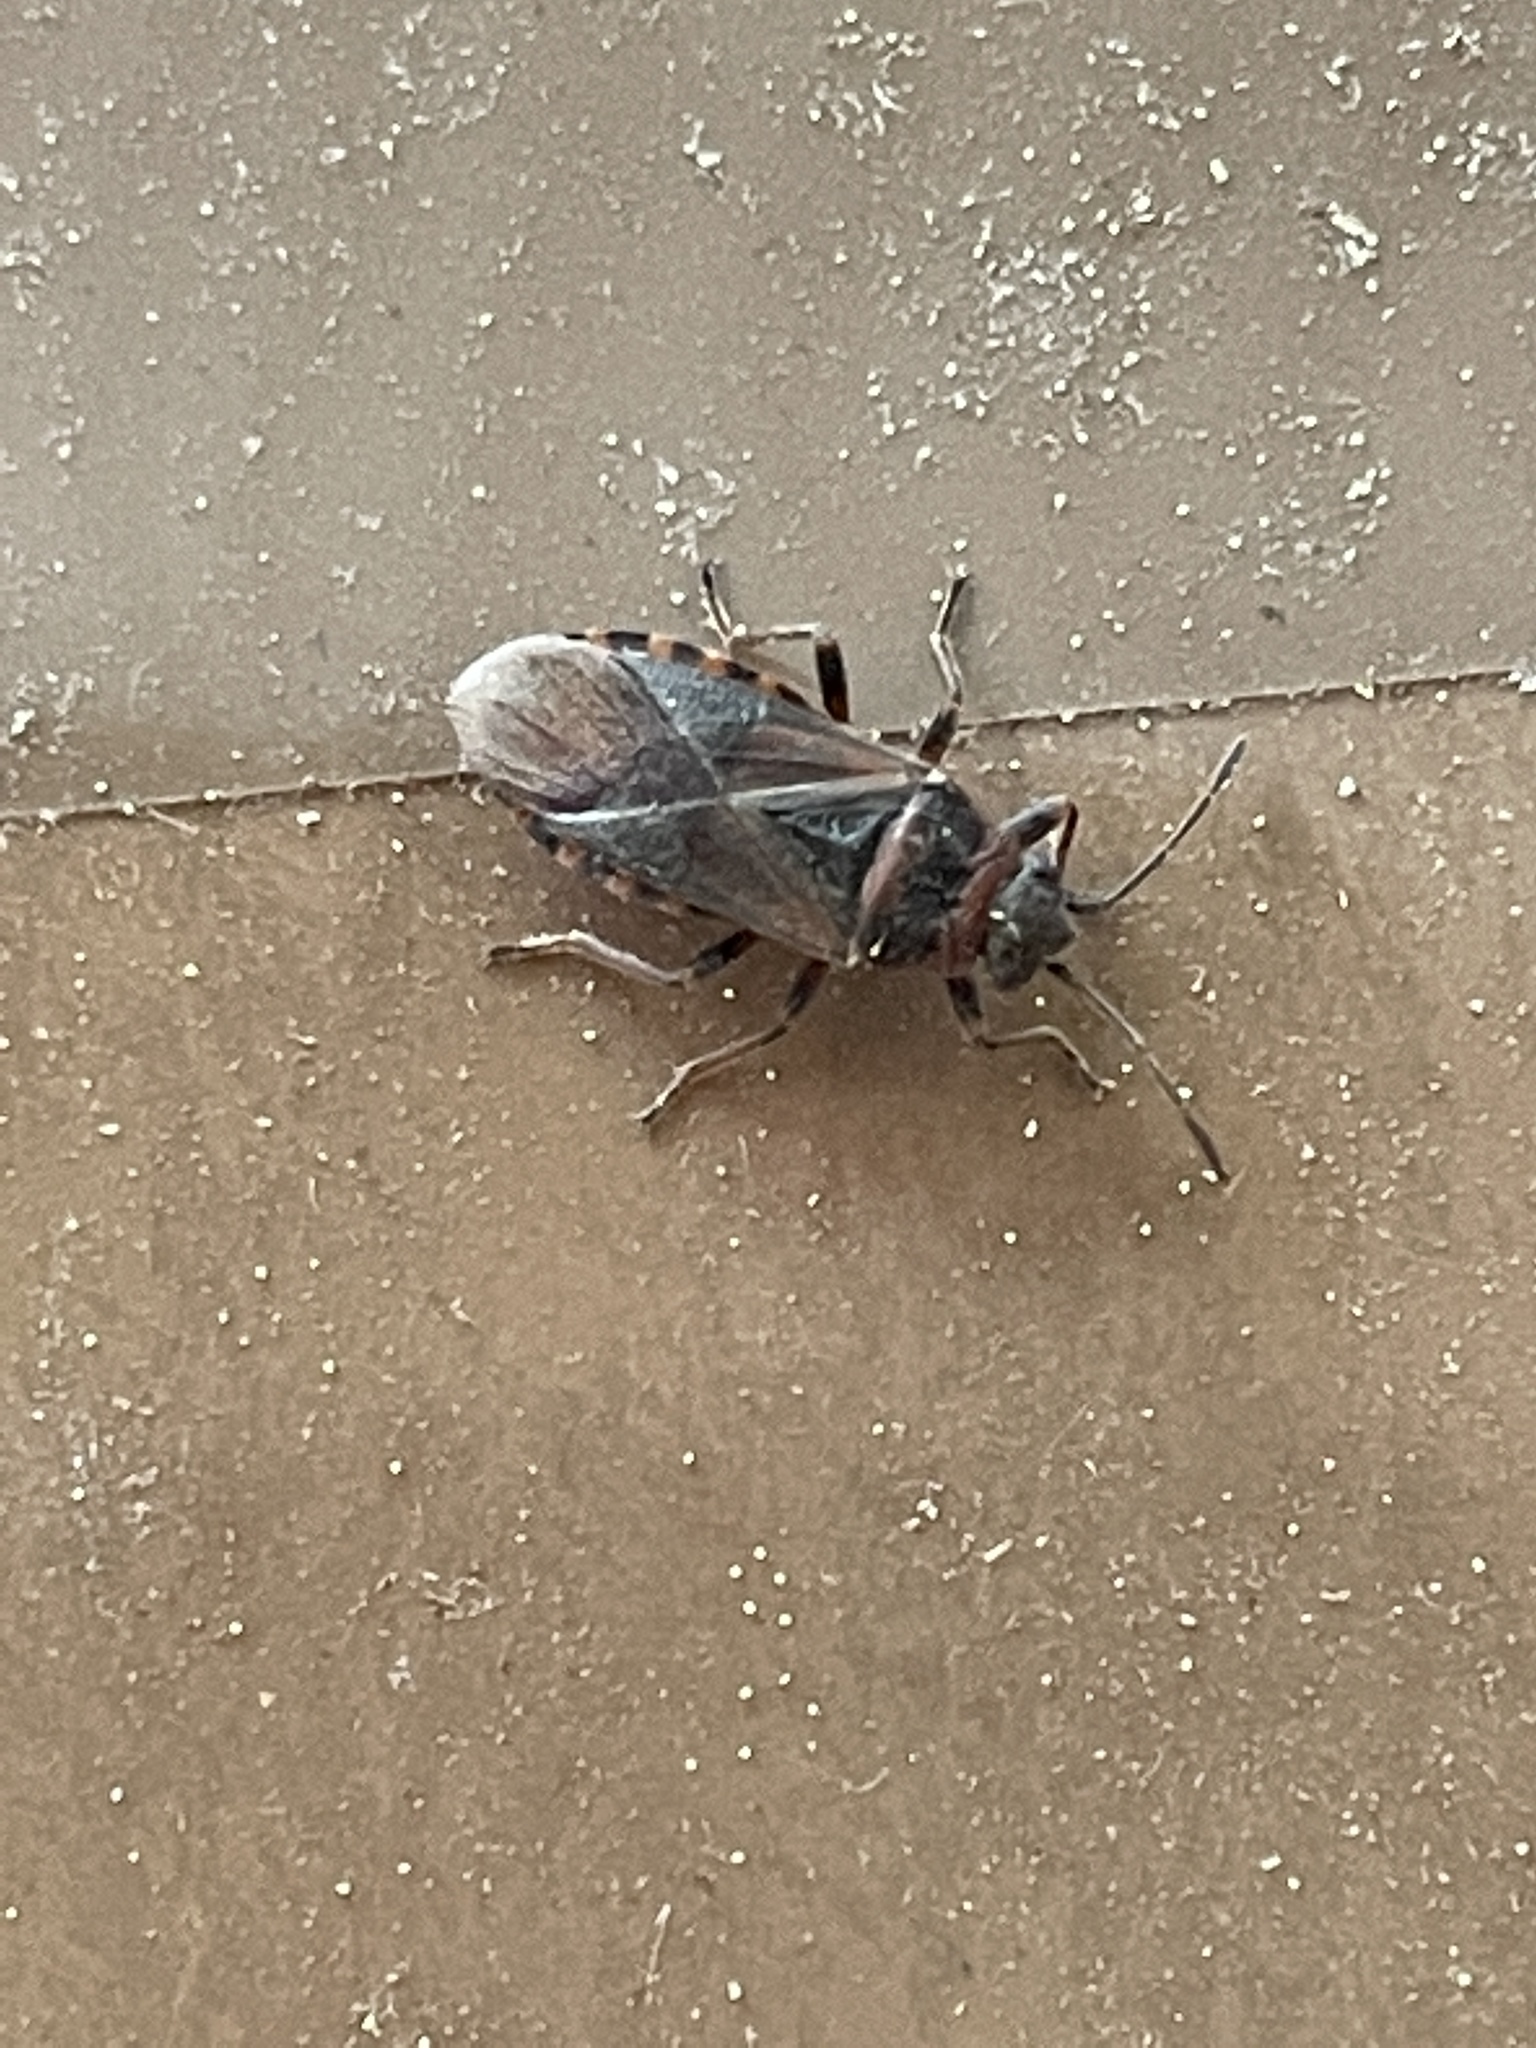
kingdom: Animalia
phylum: Arthropoda
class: Insecta
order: Hemiptera
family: Lygaeidae
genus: Arocatus
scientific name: Arocatus melanocephalus
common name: Lygaeid bug
